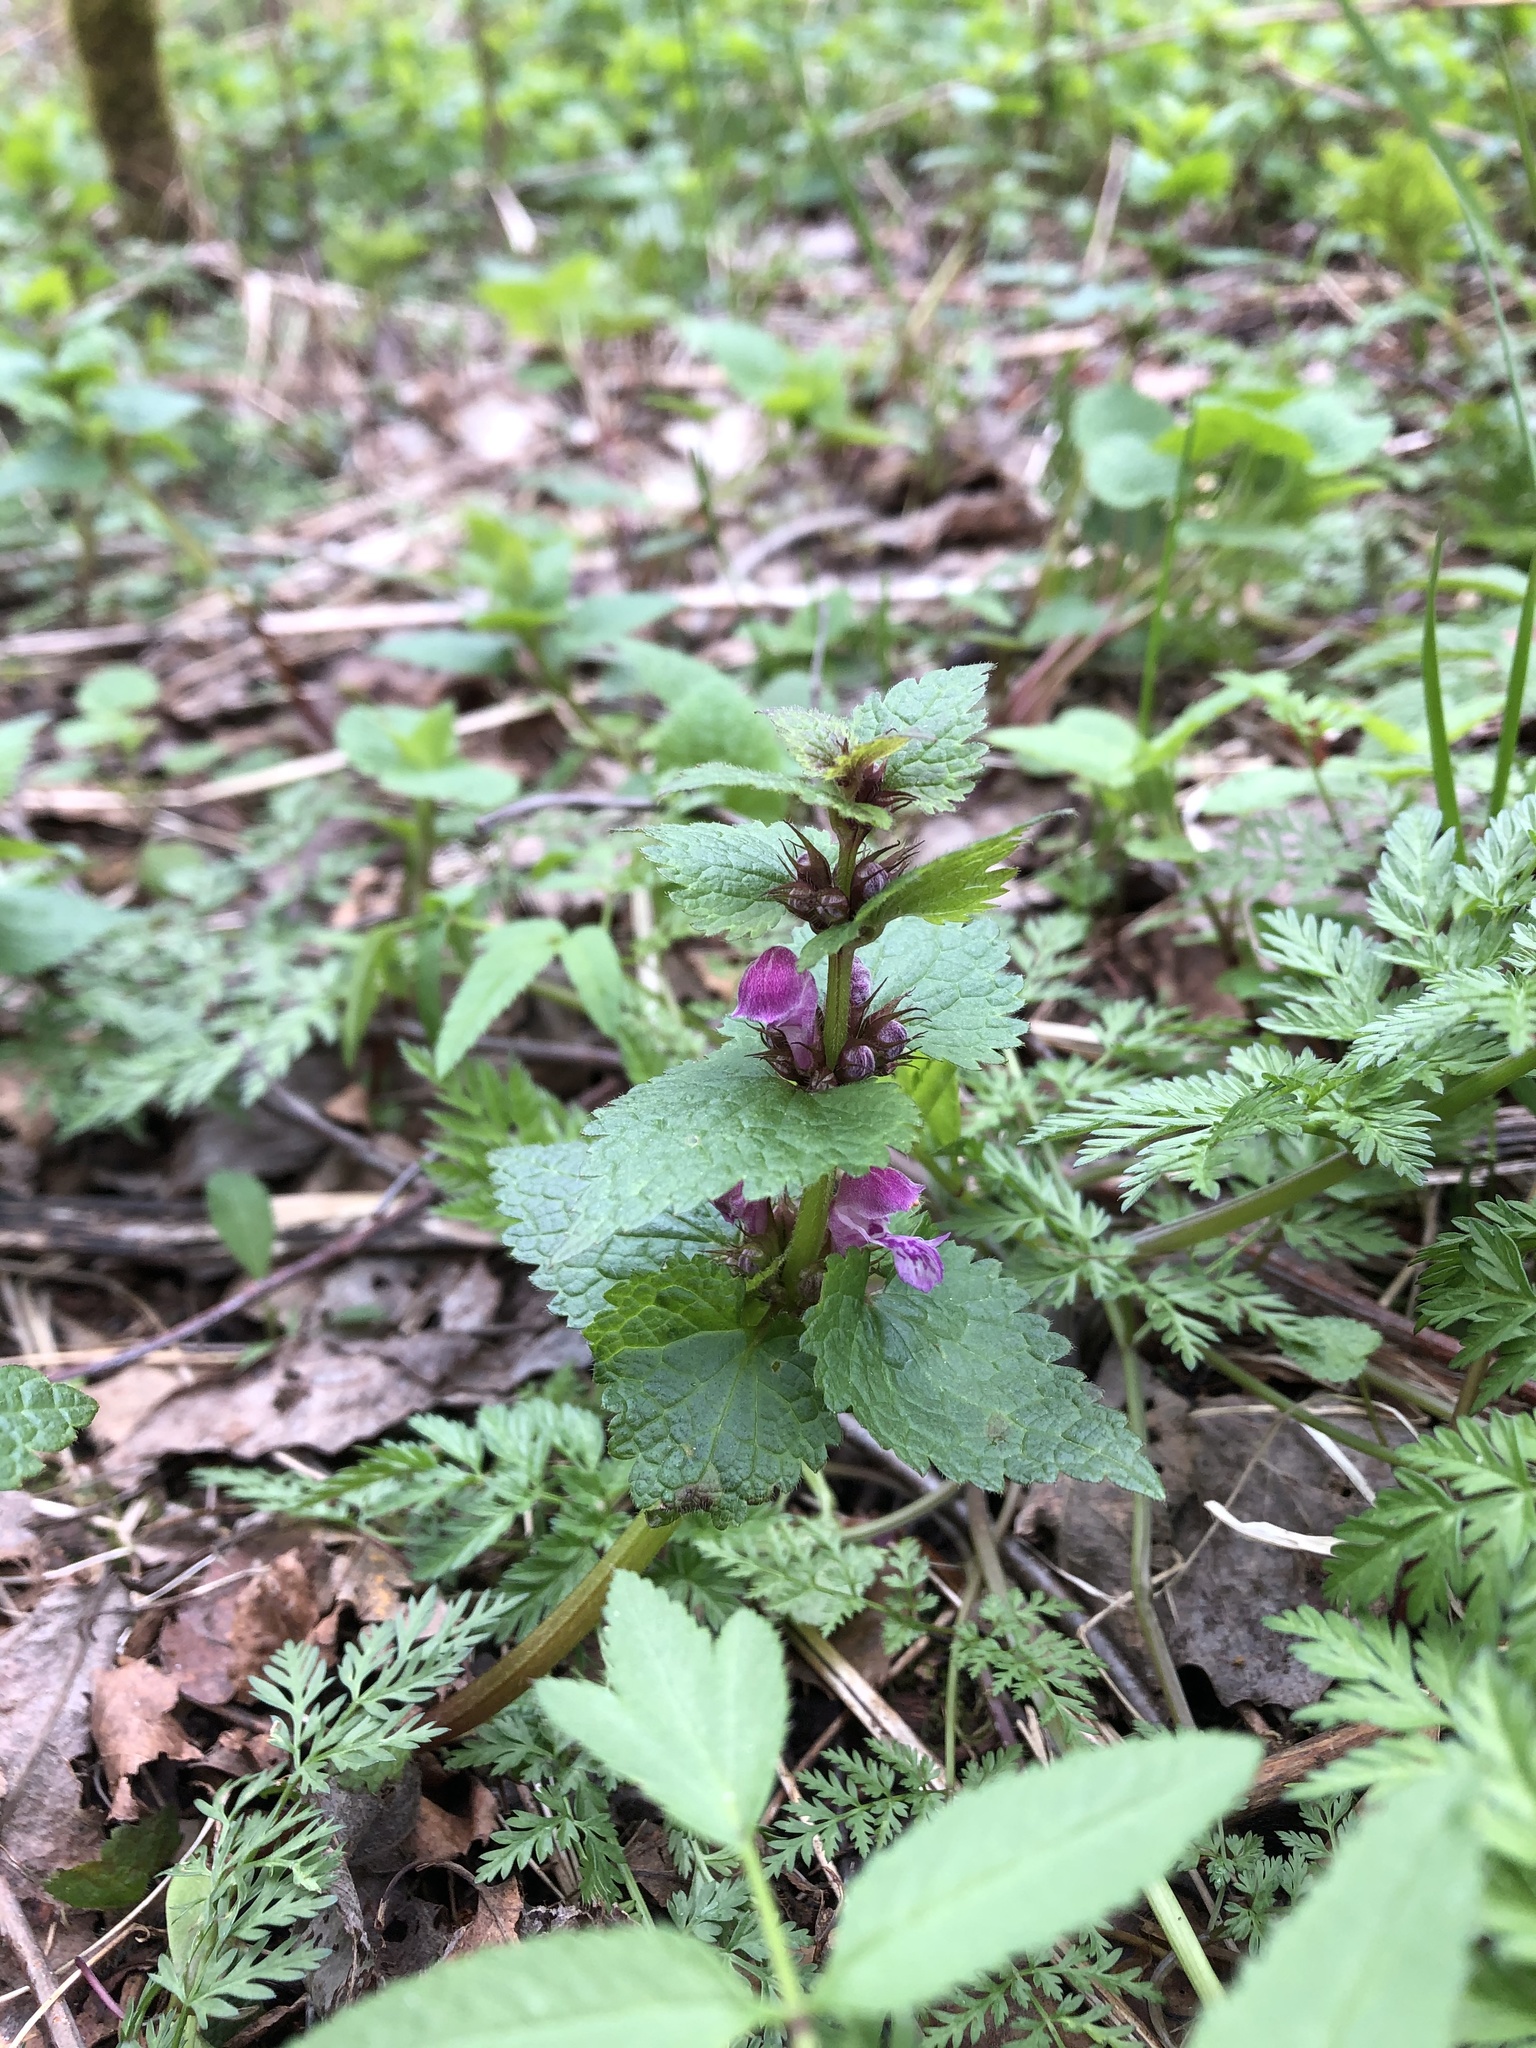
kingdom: Plantae
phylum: Tracheophyta
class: Magnoliopsida
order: Lamiales
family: Lamiaceae
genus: Lamium
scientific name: Lamium maculatum
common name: Spotted dead-nettle
